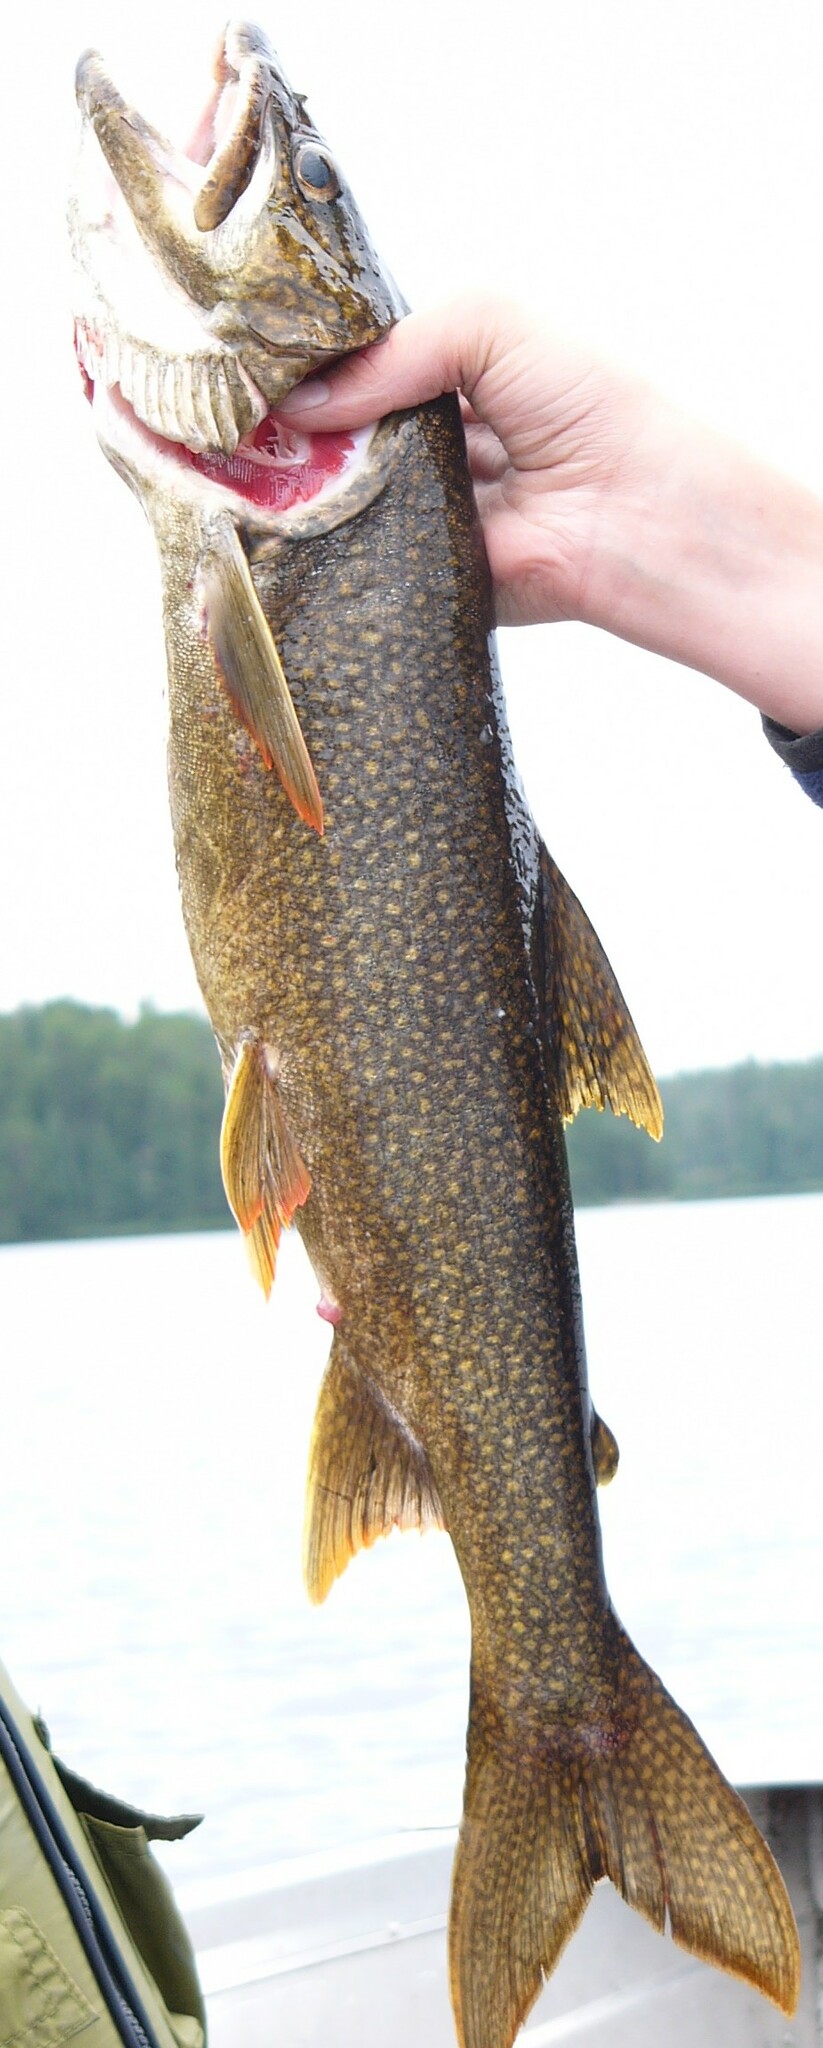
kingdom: Animalia
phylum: Chordata
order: Salmoniformes
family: Salmonidae
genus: Salvelinus
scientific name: Salvelinus namaycush
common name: American lake charr
